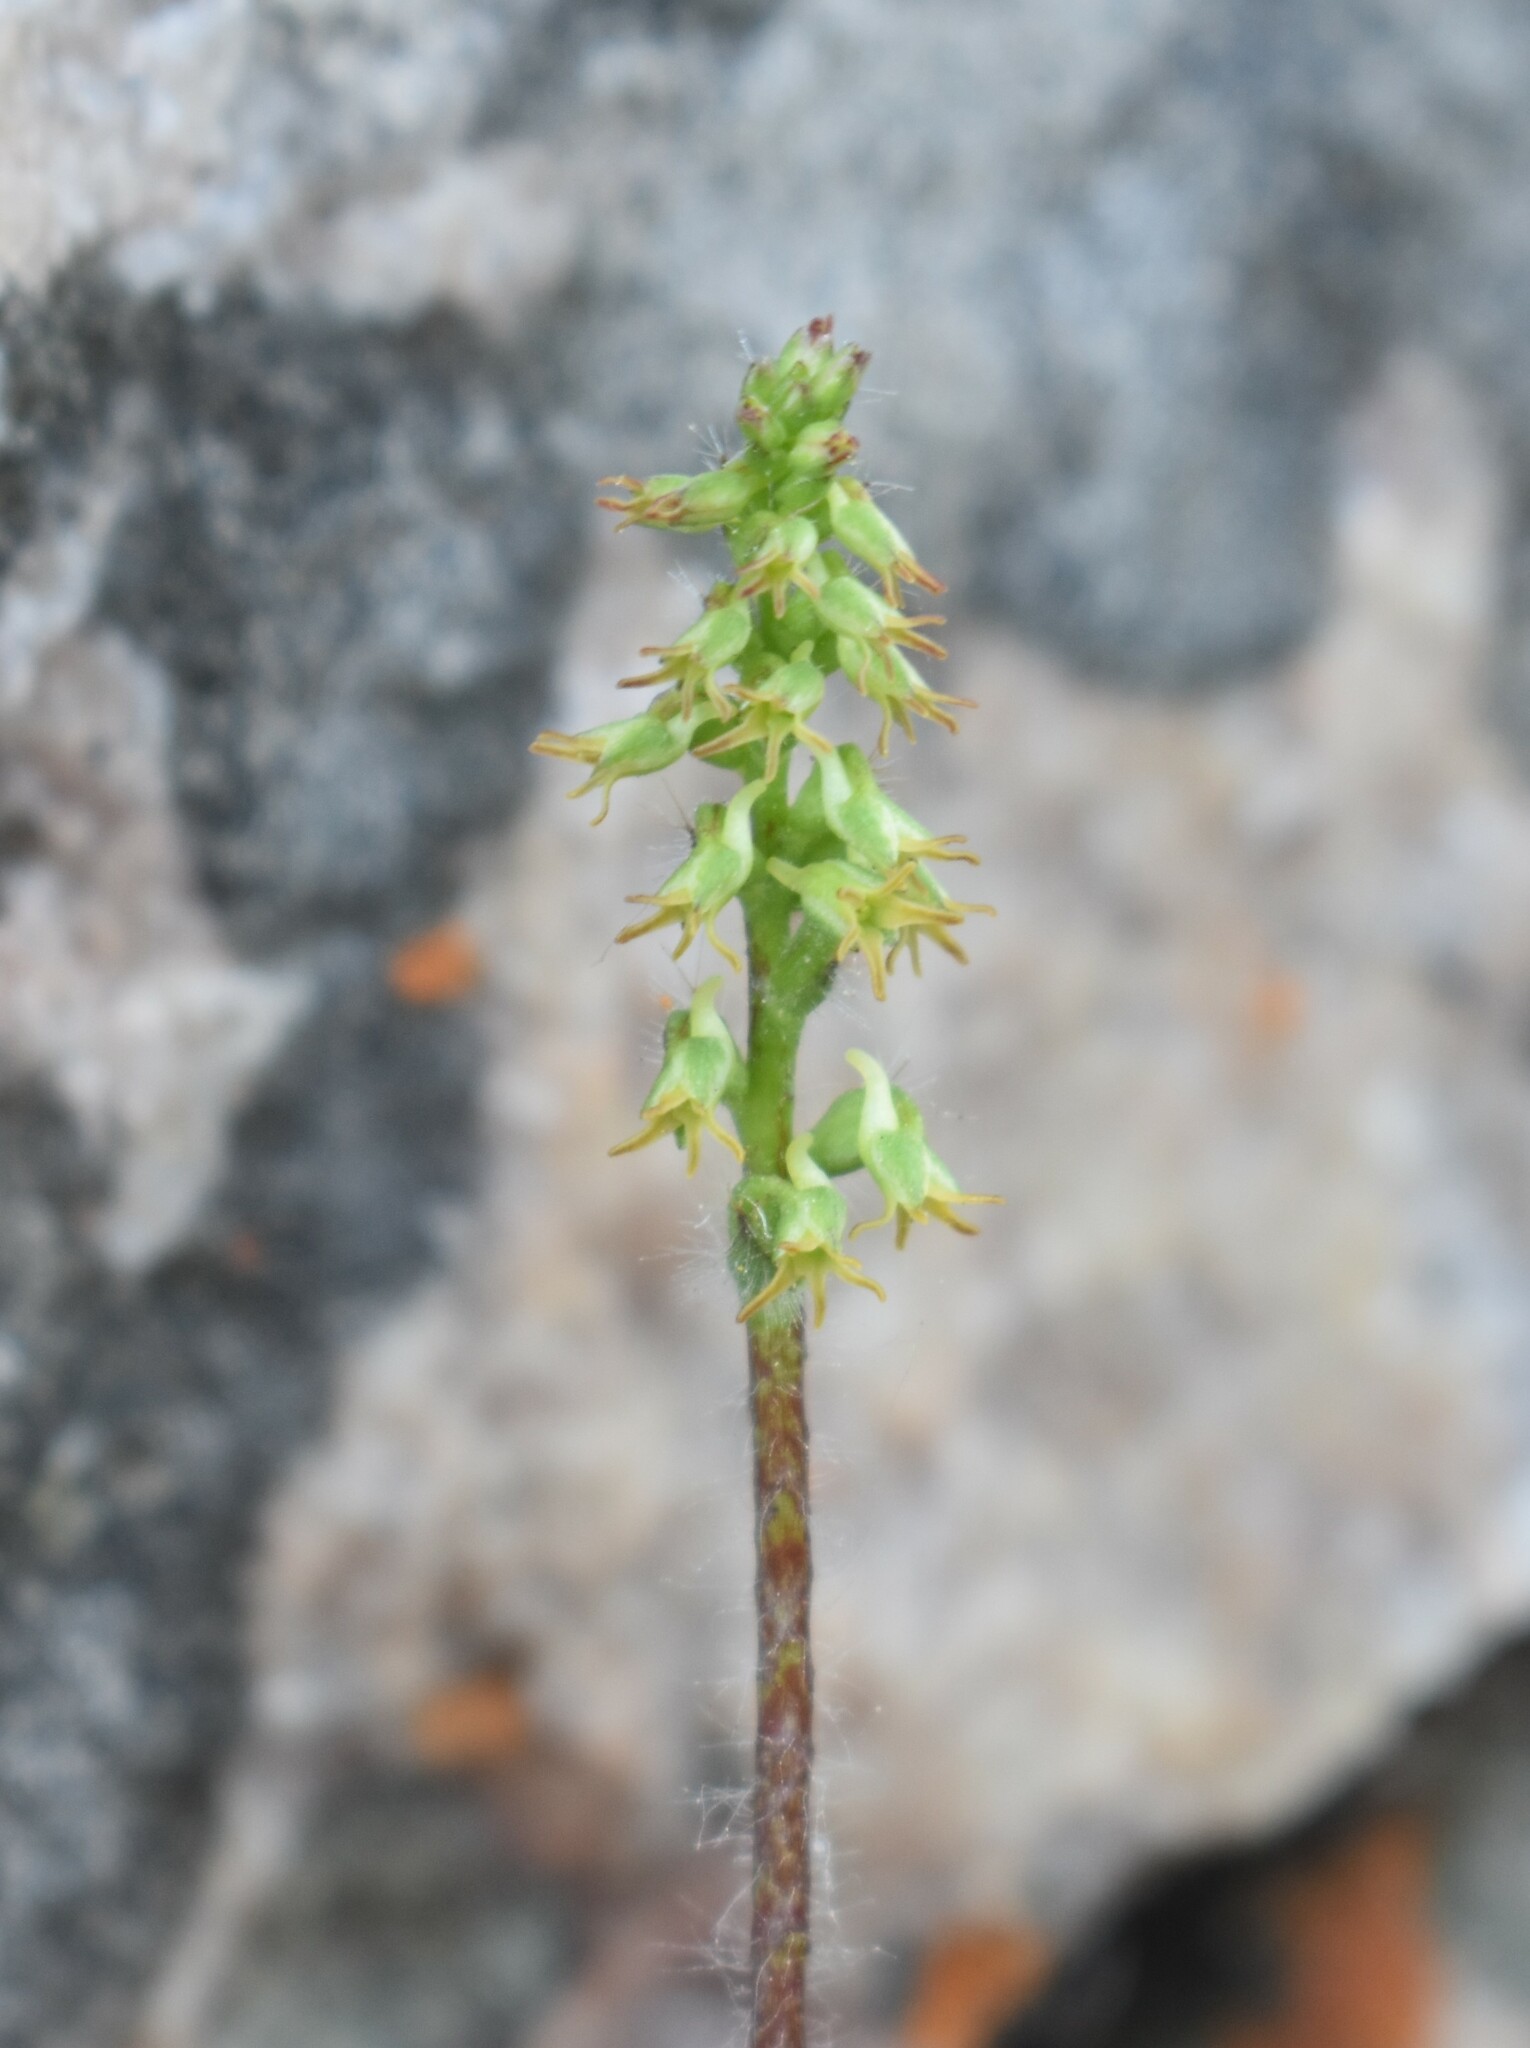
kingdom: Plantae
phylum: Tracheophyta
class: Liliopsida
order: Asparagales
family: Orchidaceae
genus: Holothrix
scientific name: Holothrix villosa
